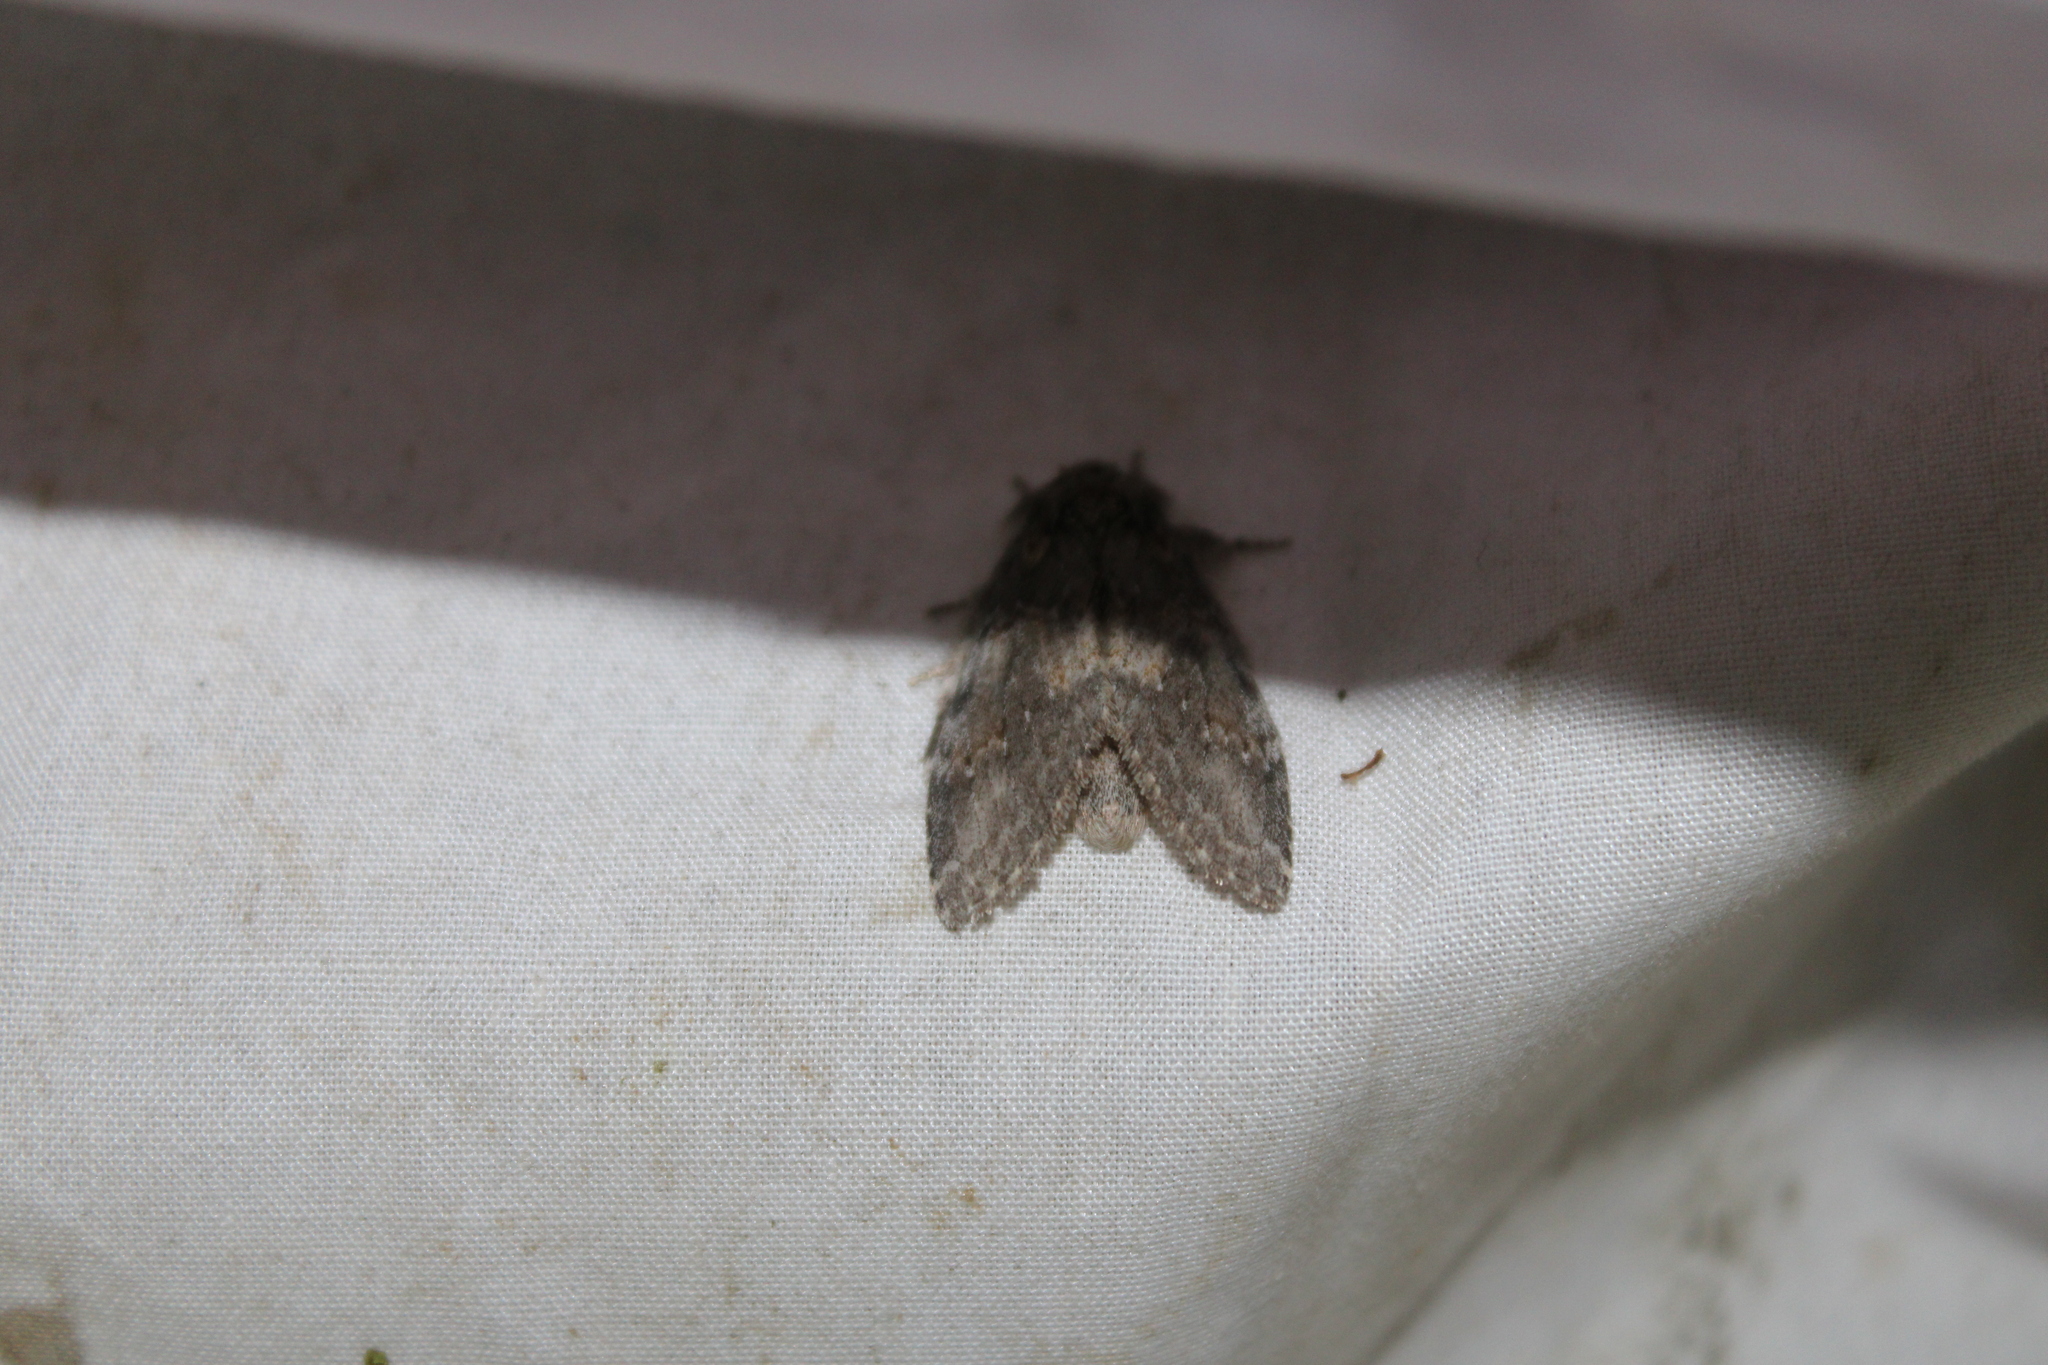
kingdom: Animalia
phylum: Arthropoda
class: Insecta
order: Lepidoptera
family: Notodontidae
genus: Peridea
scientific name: Peridea angulosa
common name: Angulose prominent
